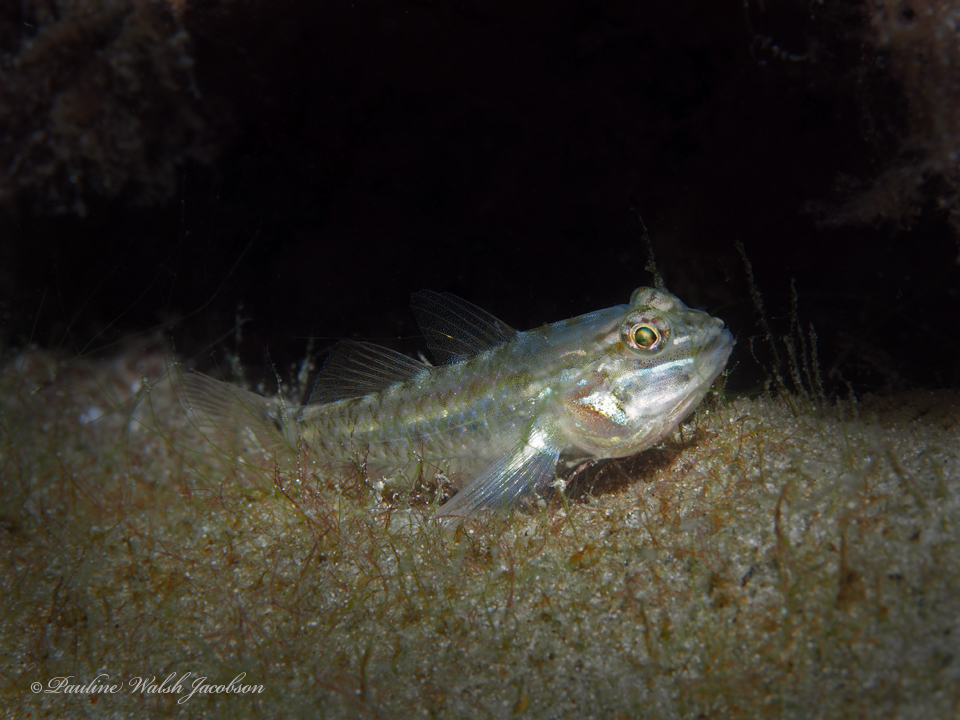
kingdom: Animalia
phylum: Chordata
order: Perciformes
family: Gobiidae
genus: Coryphopterus
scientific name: Coryphopterus glaucofraenum
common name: Bridled goby
